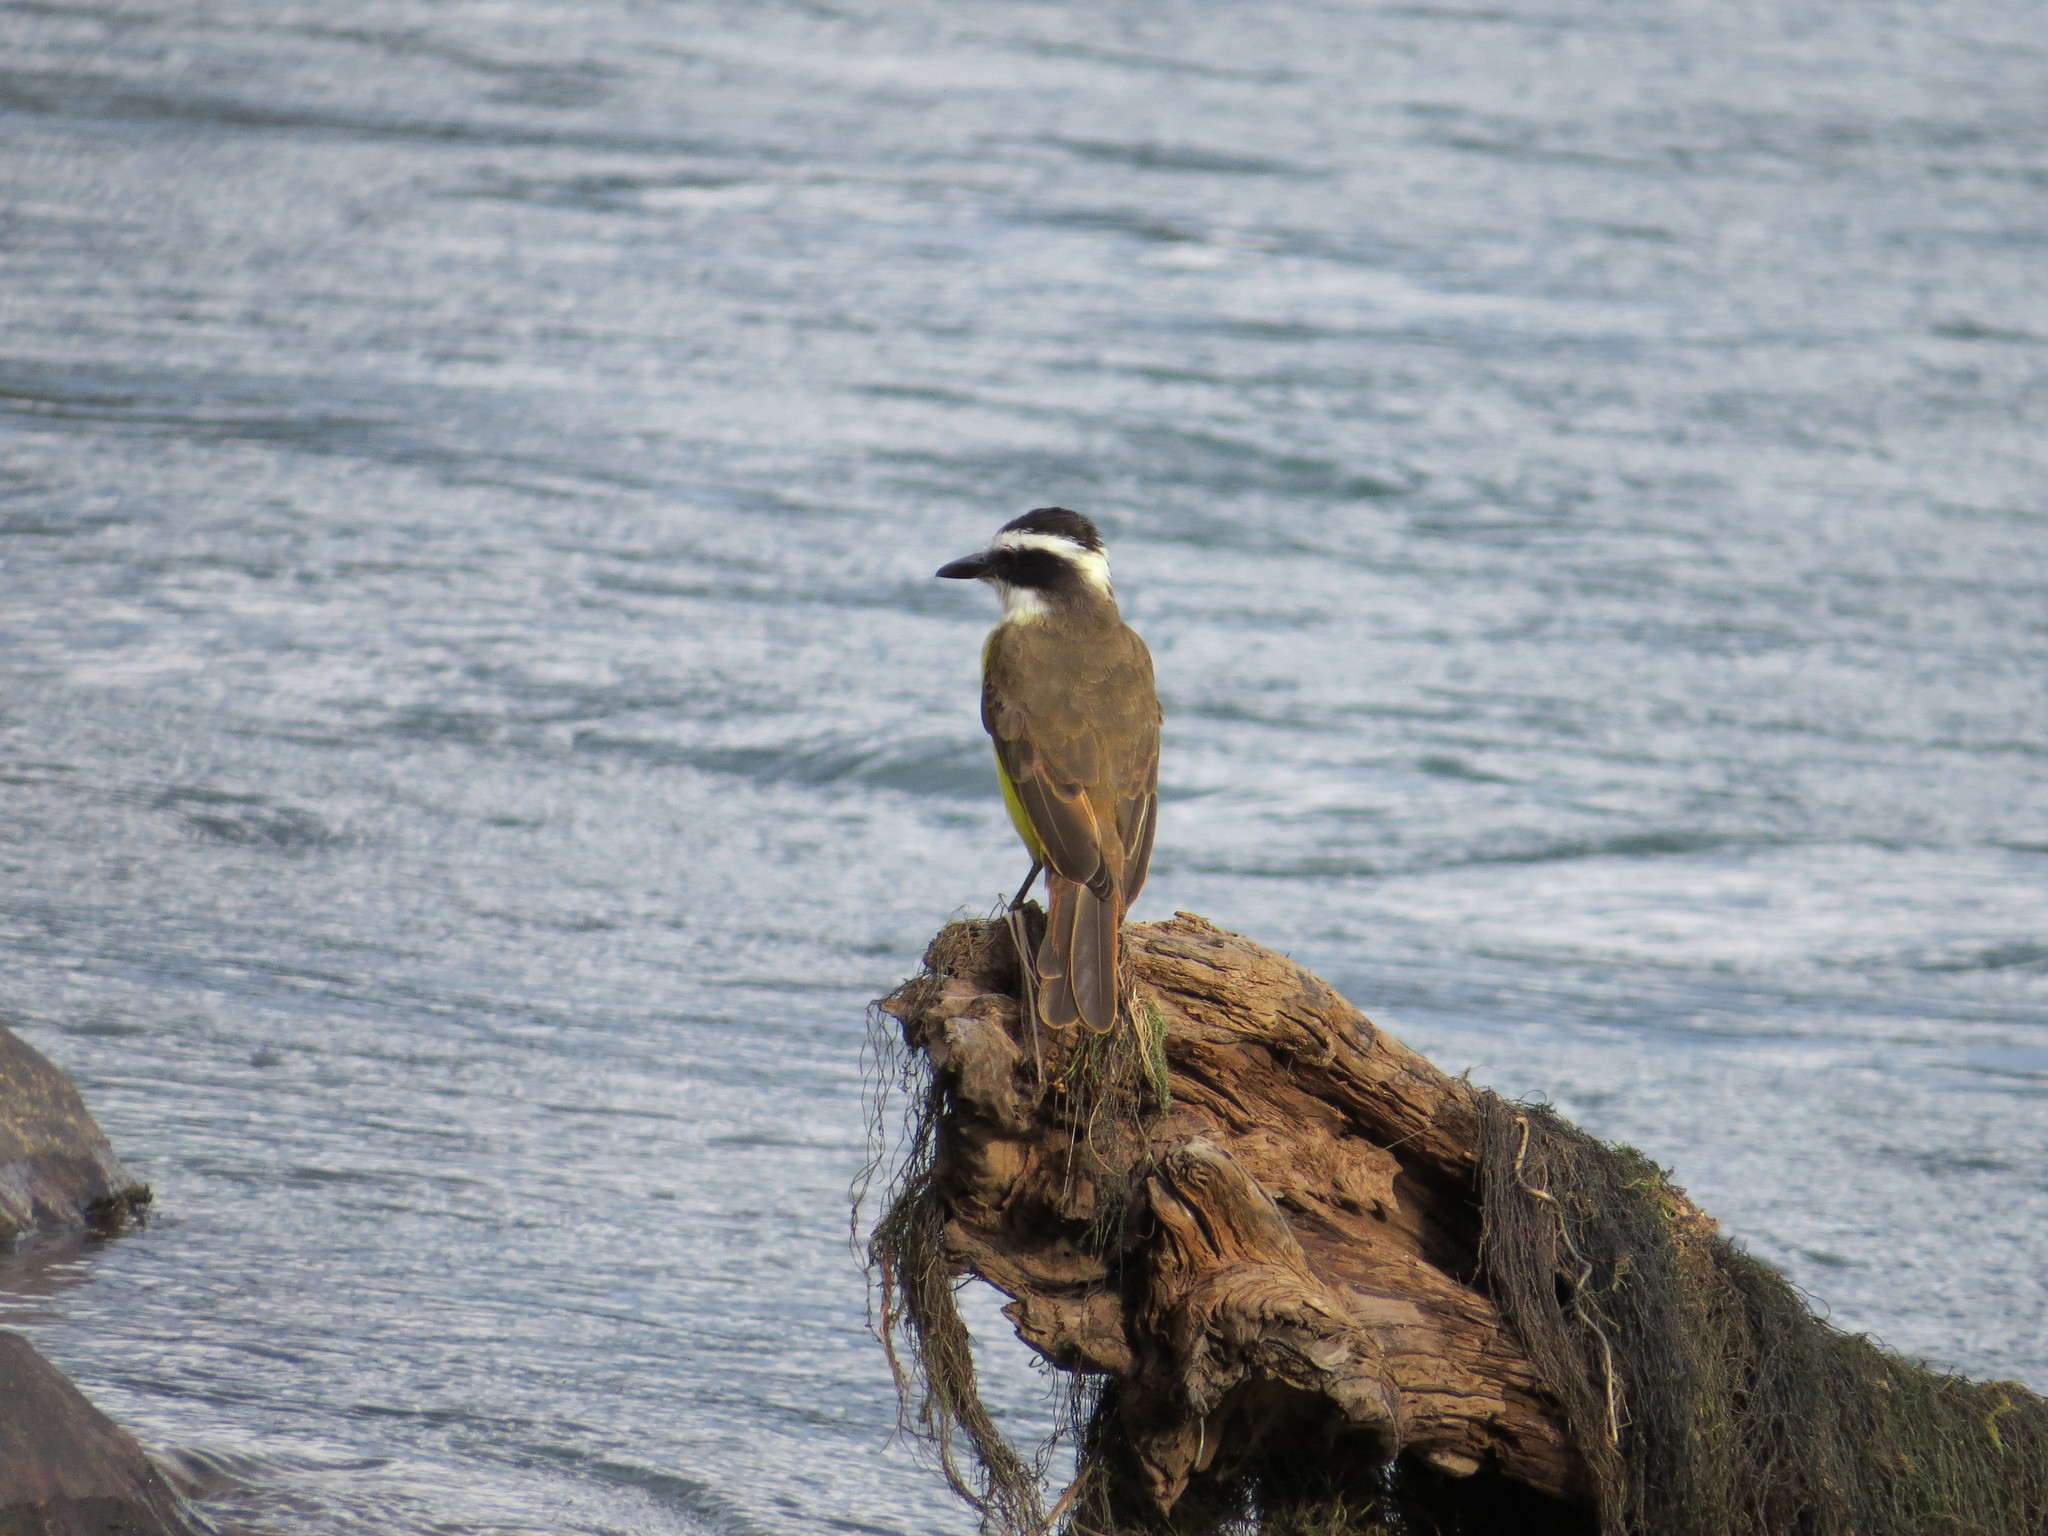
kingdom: Animalia
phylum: Chordata
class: Aves
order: Passeriformes
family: Tyrannidae
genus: Pitangus
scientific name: Pitangus sulphuratus
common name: Great kiskadee
